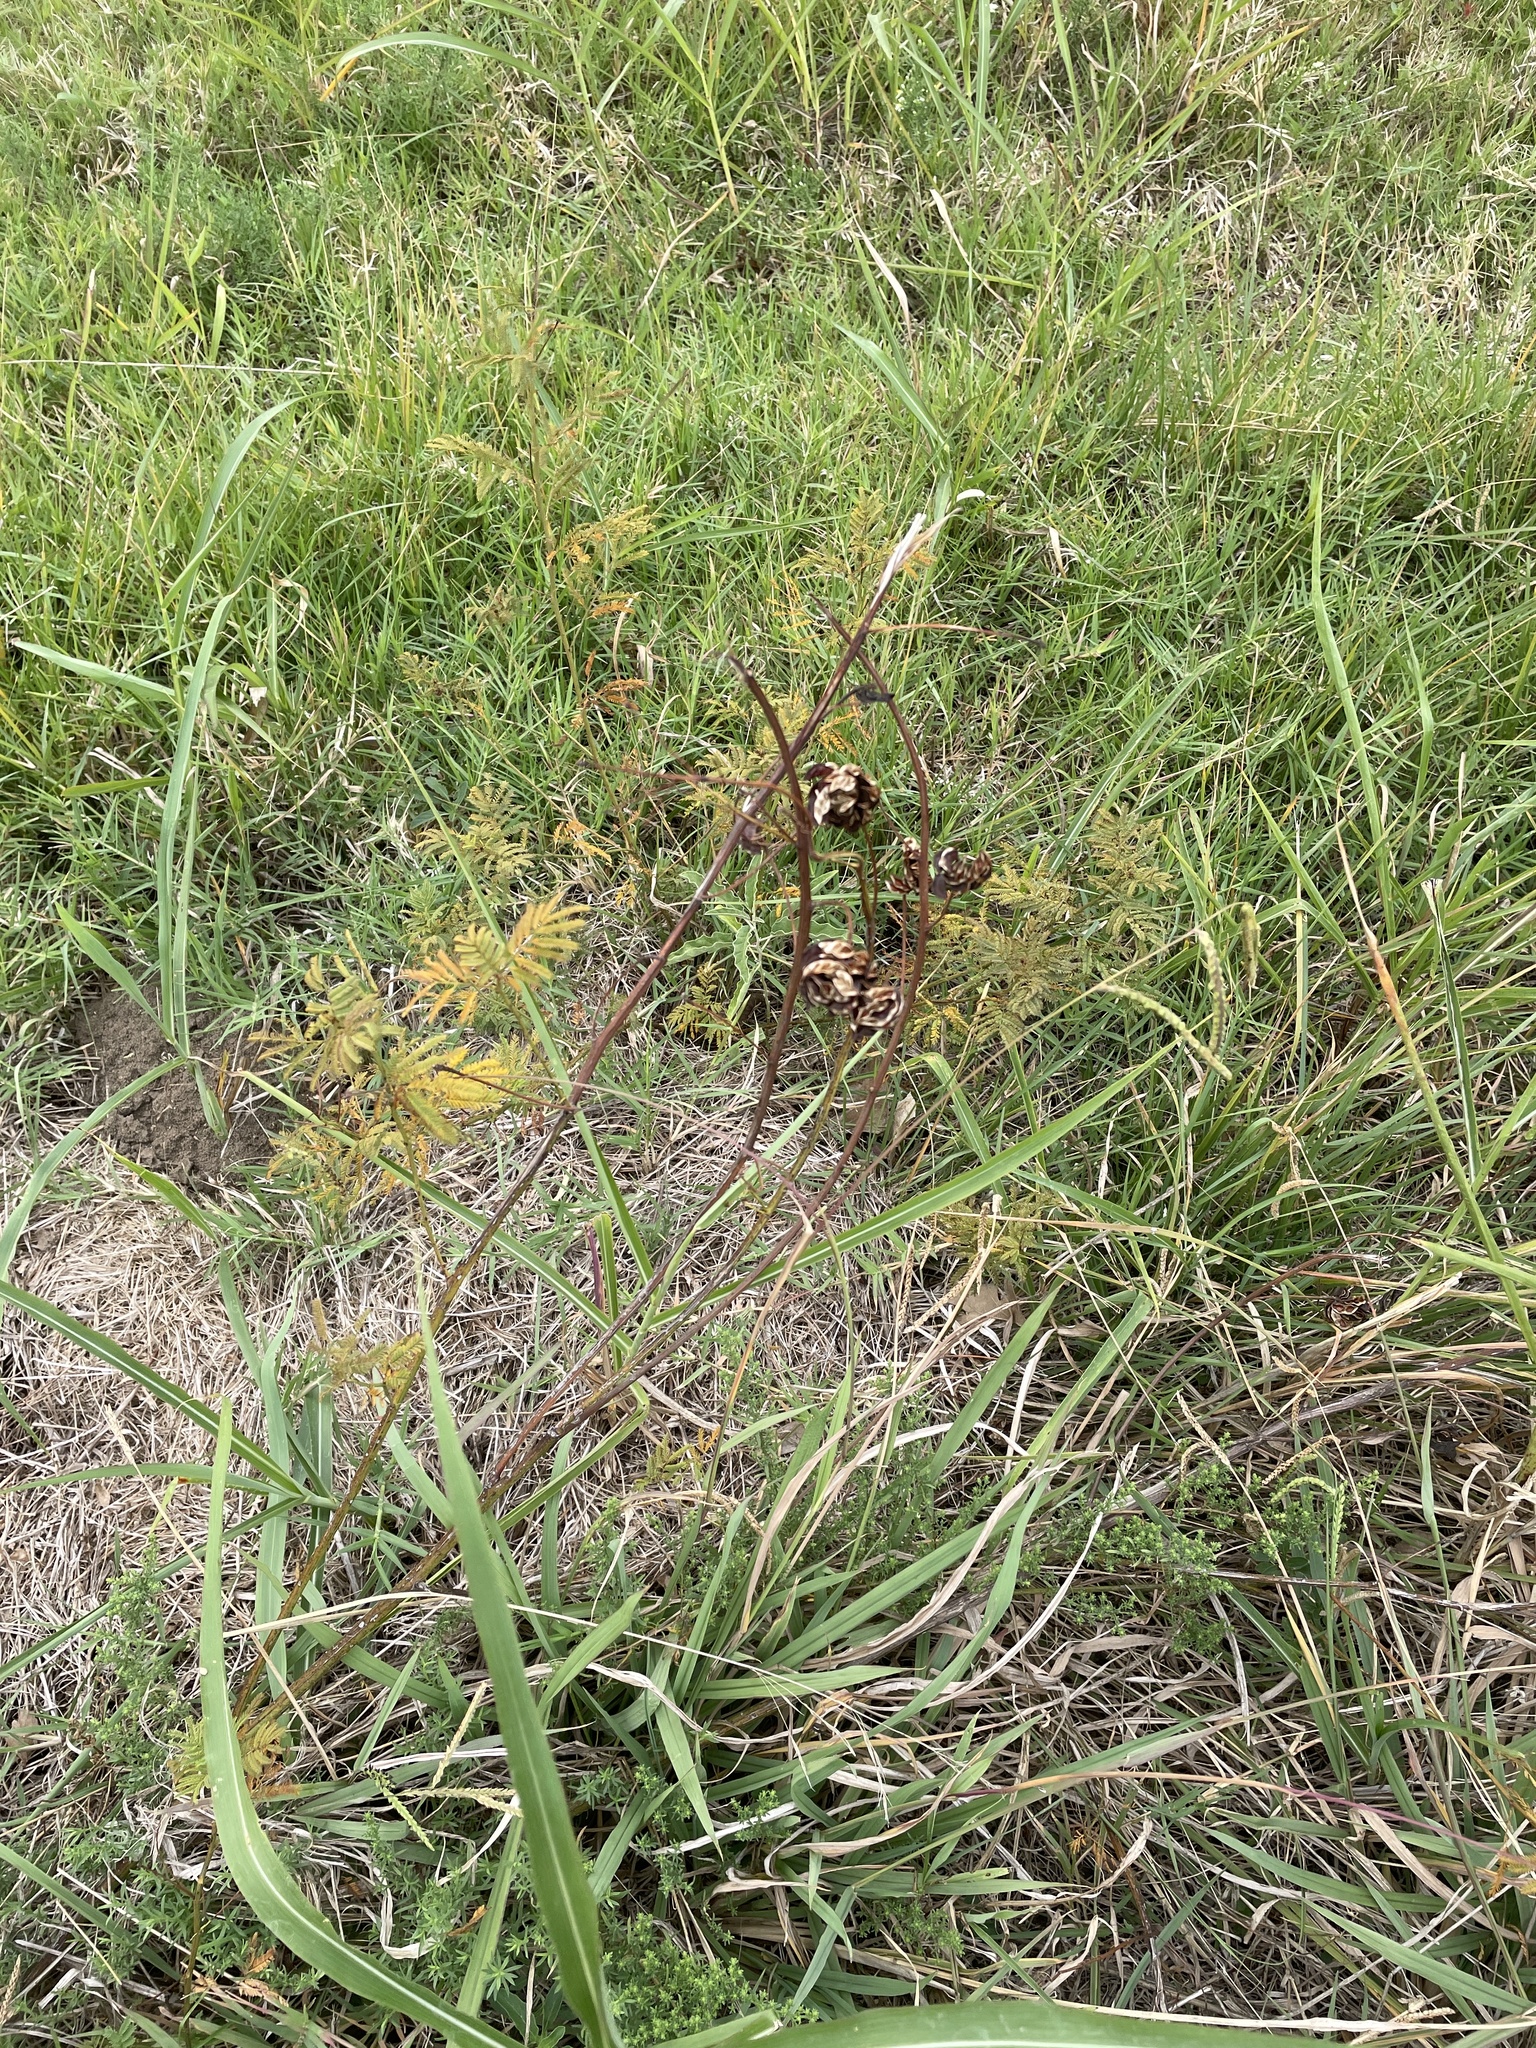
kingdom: Plantae
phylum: Tracheophyta
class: Magnoliopsida
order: Fabales
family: Fabaceae
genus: Desmanthus
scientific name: Desmanthus illinoensis
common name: Illinois bundle-flower
